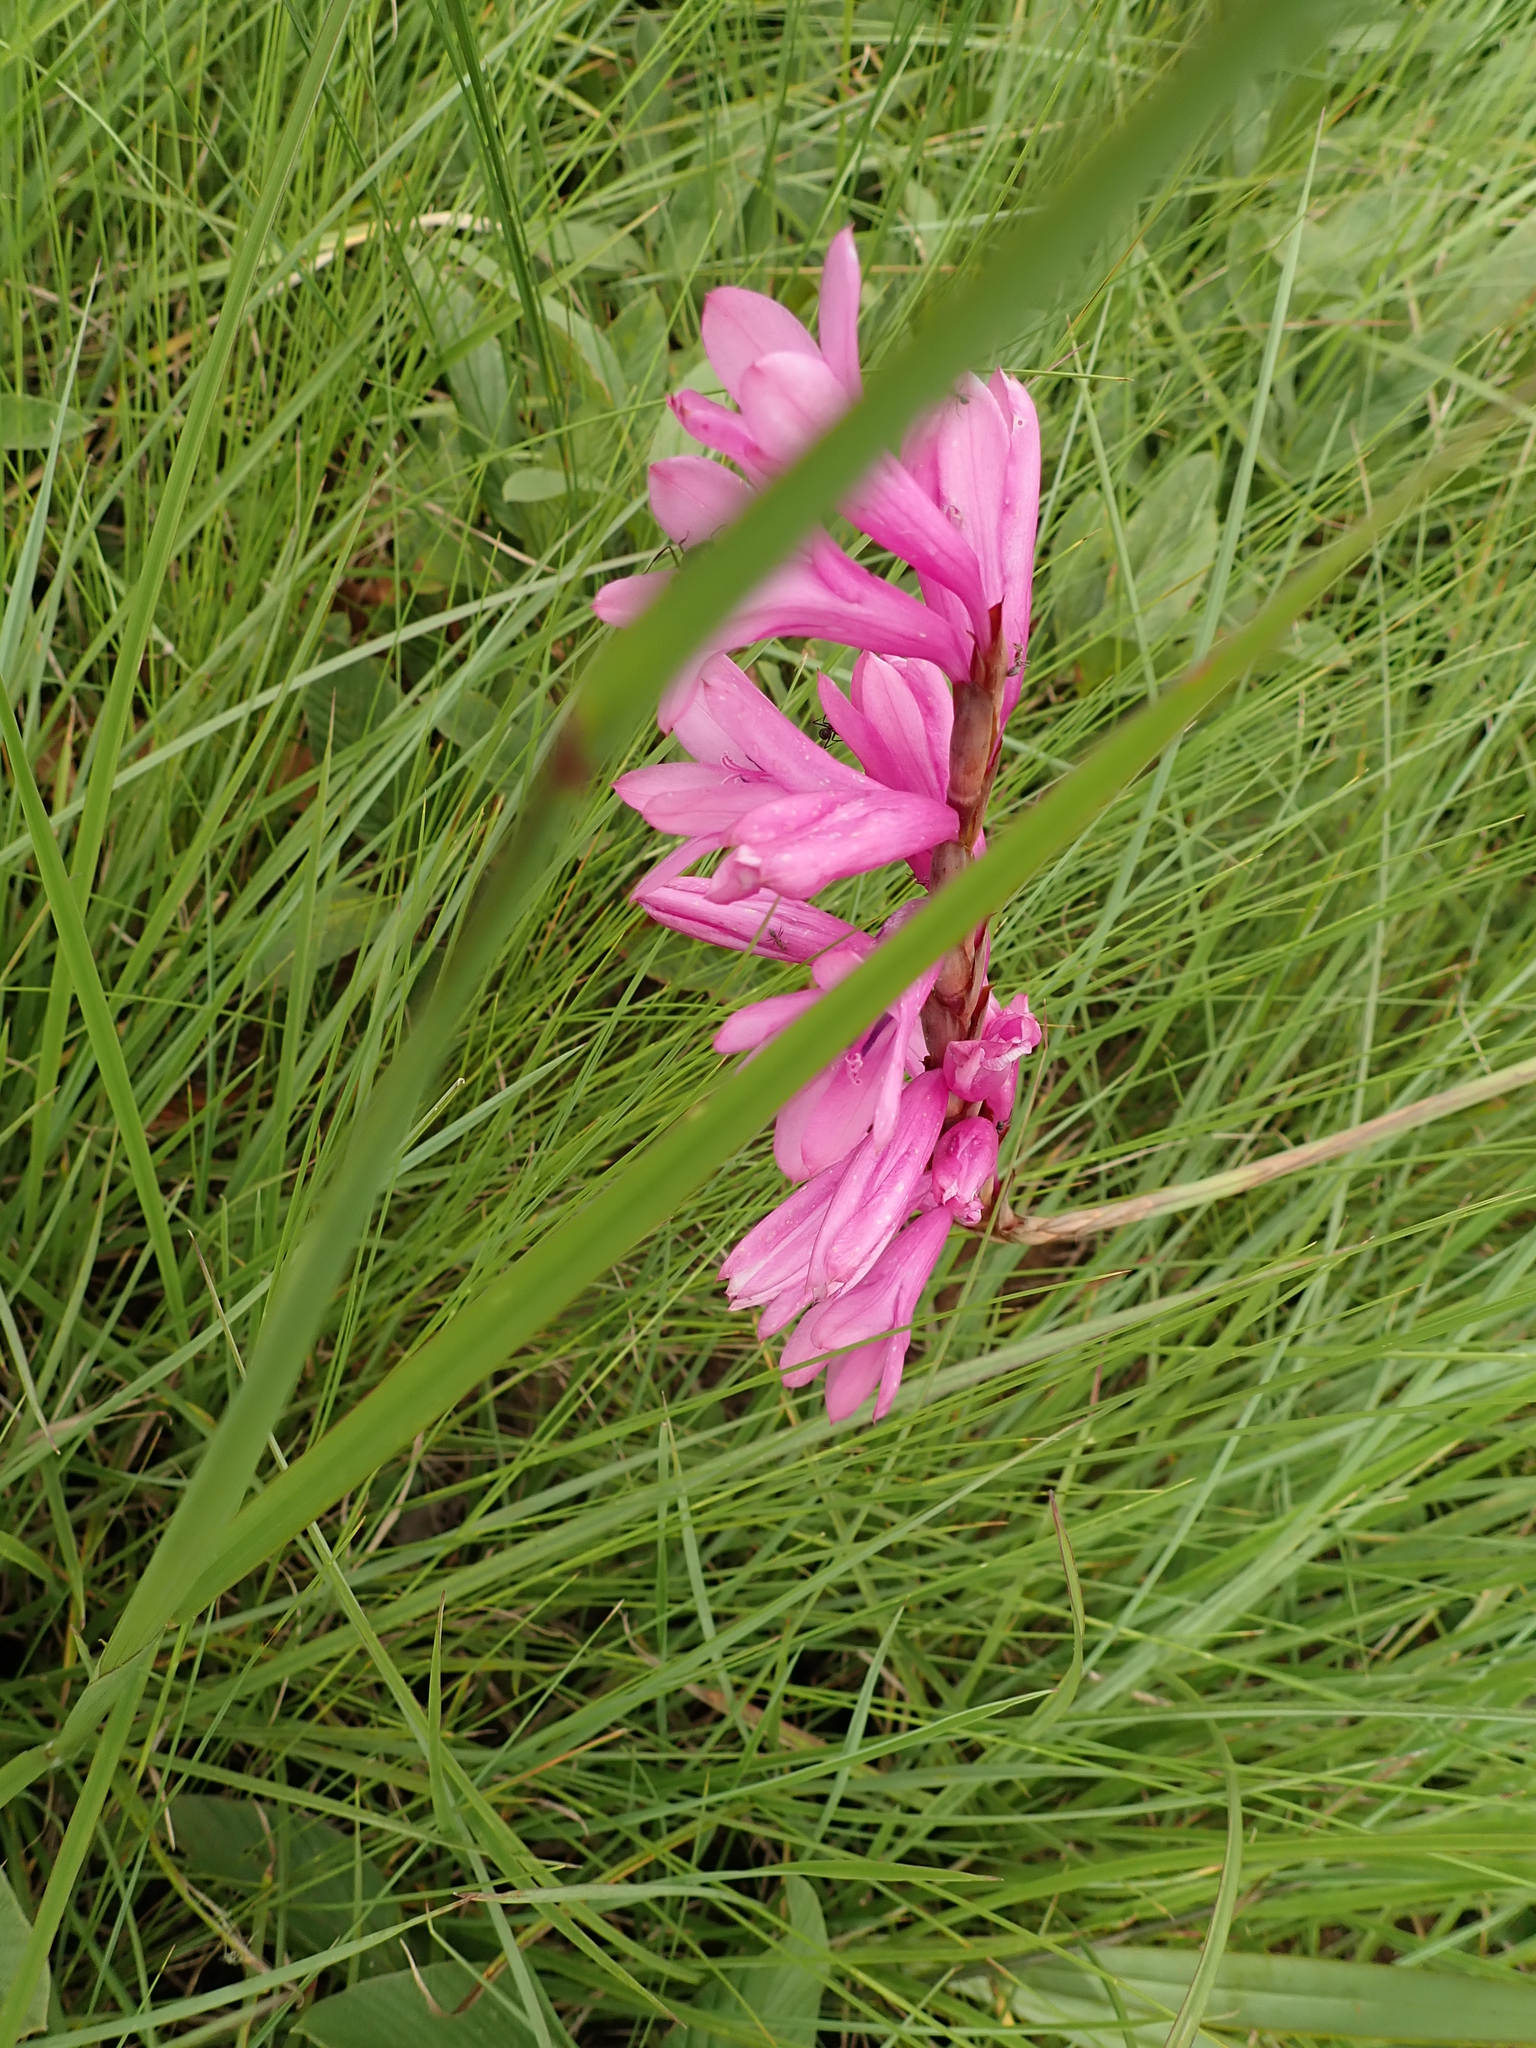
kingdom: Plantae
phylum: Tracheophyta
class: Liliopsida
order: Asparagales
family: Iridaceae
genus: Watsonia
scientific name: Watsonia densiflora
